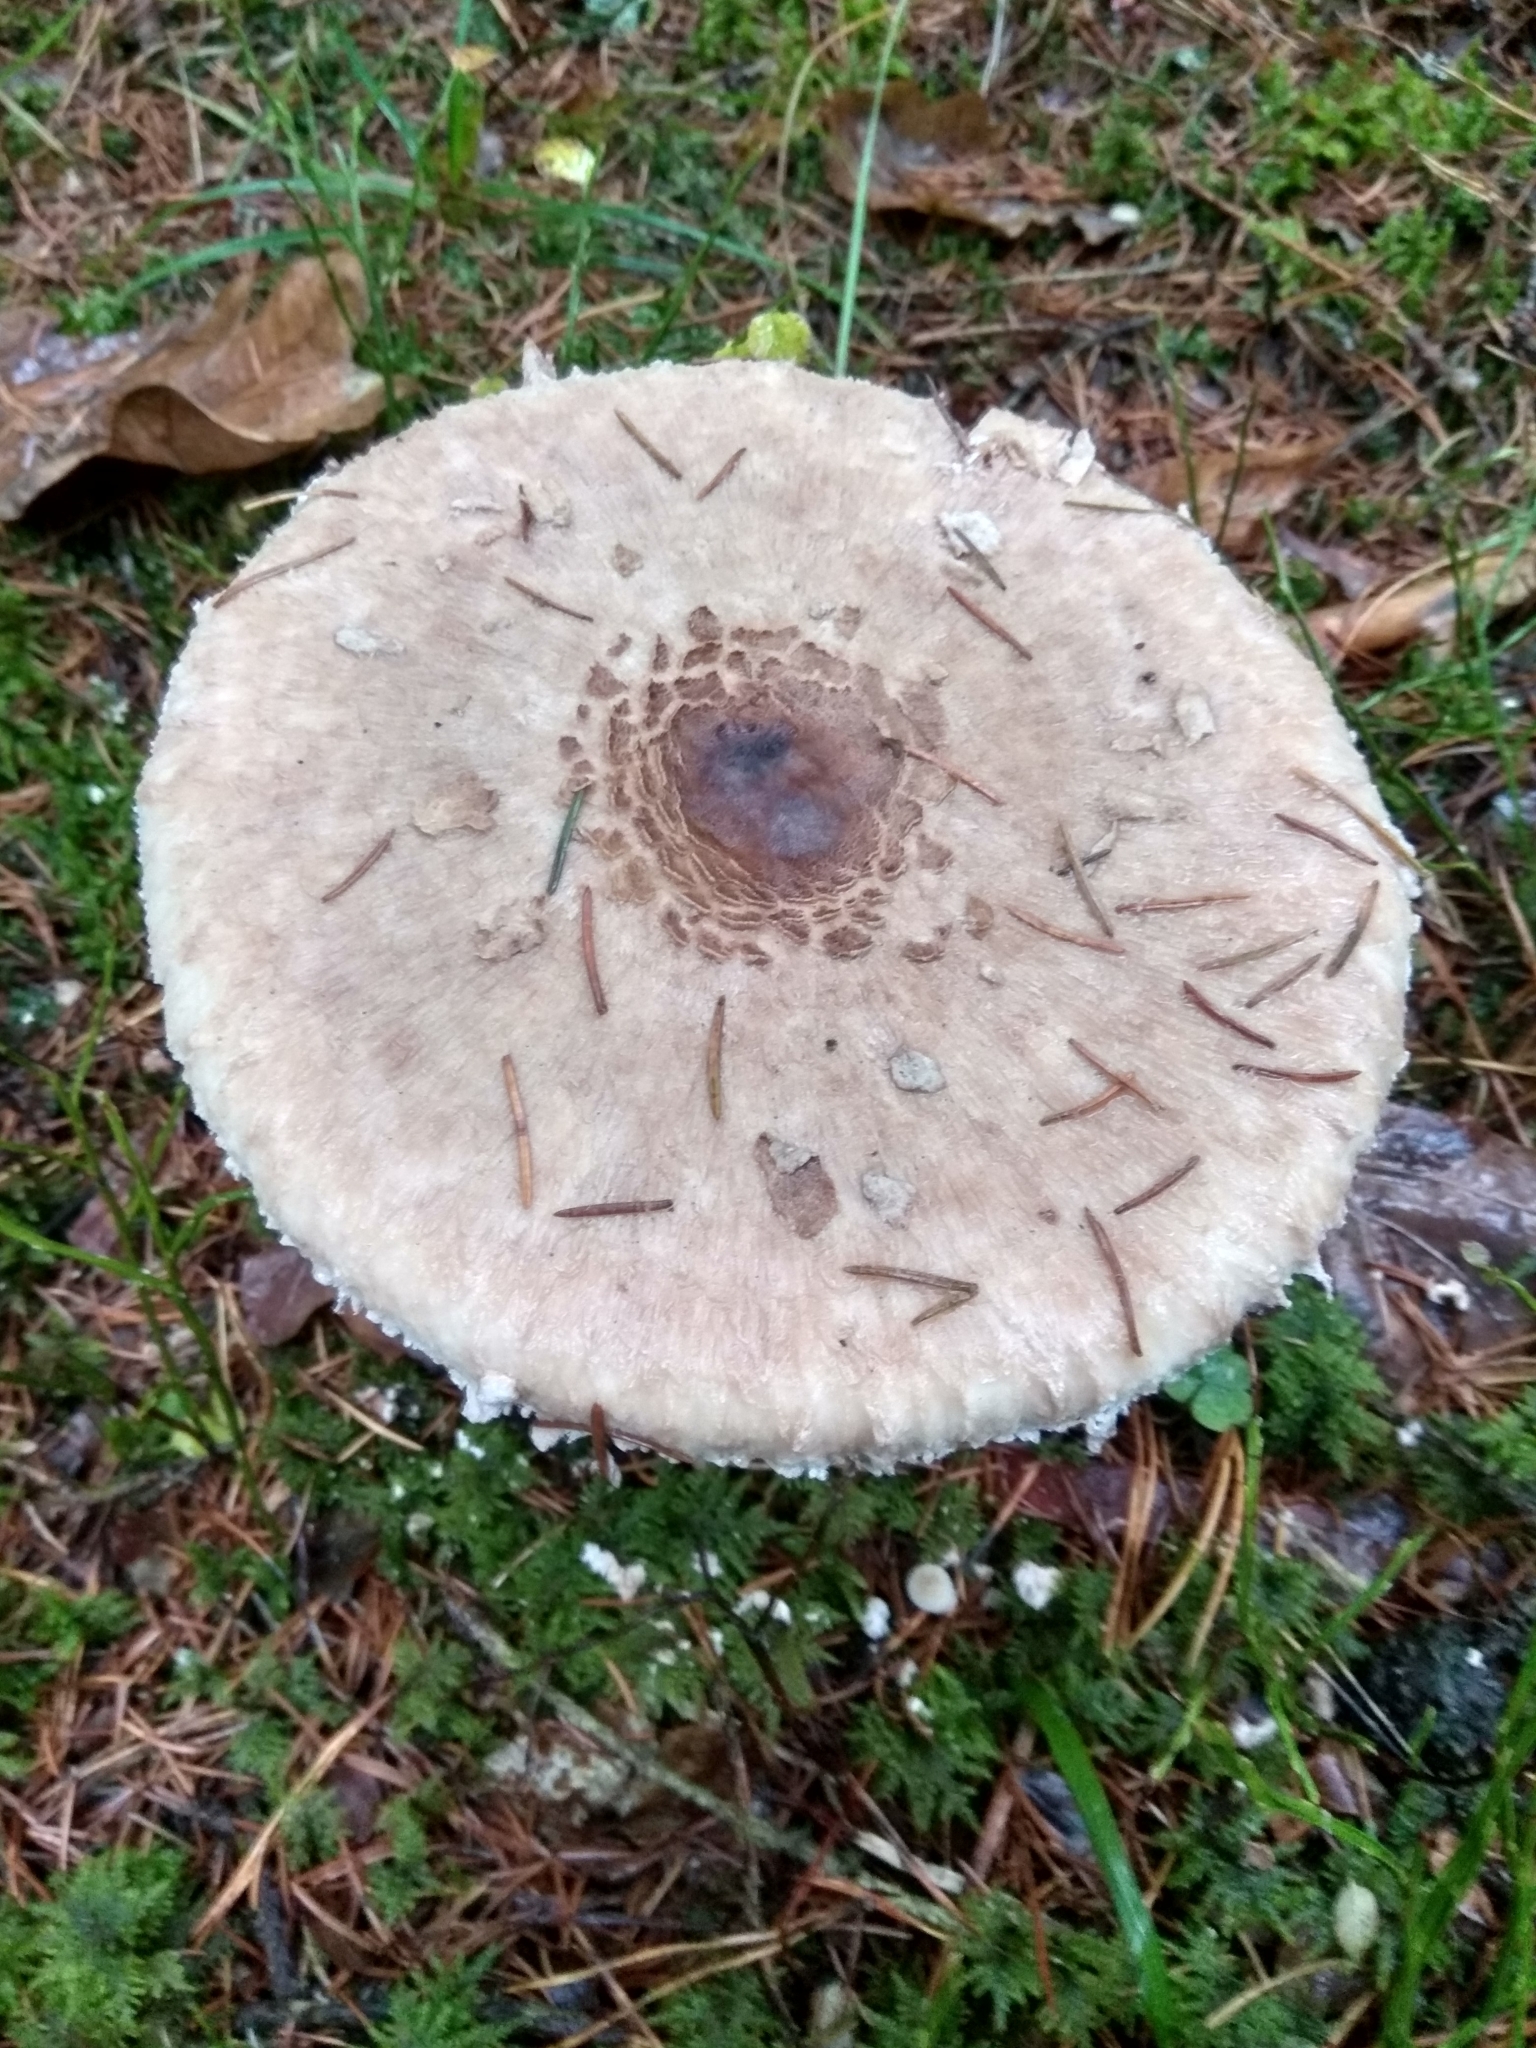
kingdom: Fungi
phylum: Basidiomycota
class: Agaricomycetes
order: Agaricales
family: Agaricaceae
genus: Macrolepiota
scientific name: Macrolepiota procera
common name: Parasol
